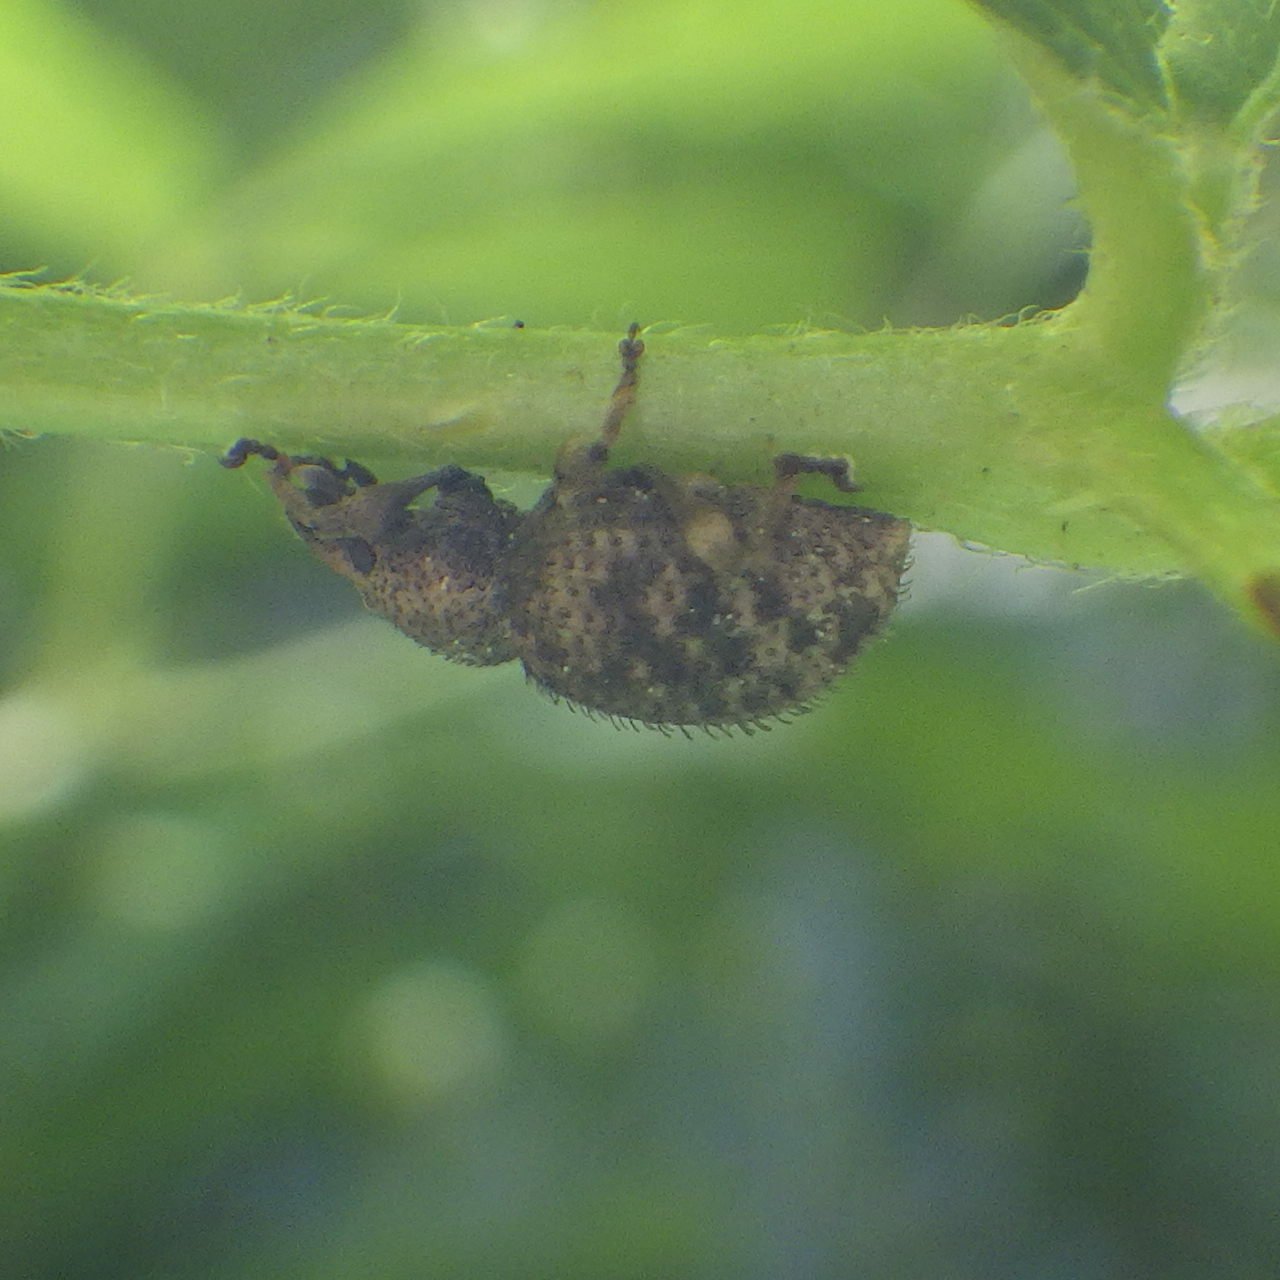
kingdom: Animalia
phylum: Arthropoda
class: Insecta
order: Coleoptera
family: Curculionidae
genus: Otiorhynchus
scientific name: Otiorhynchus carinatopunctatus
